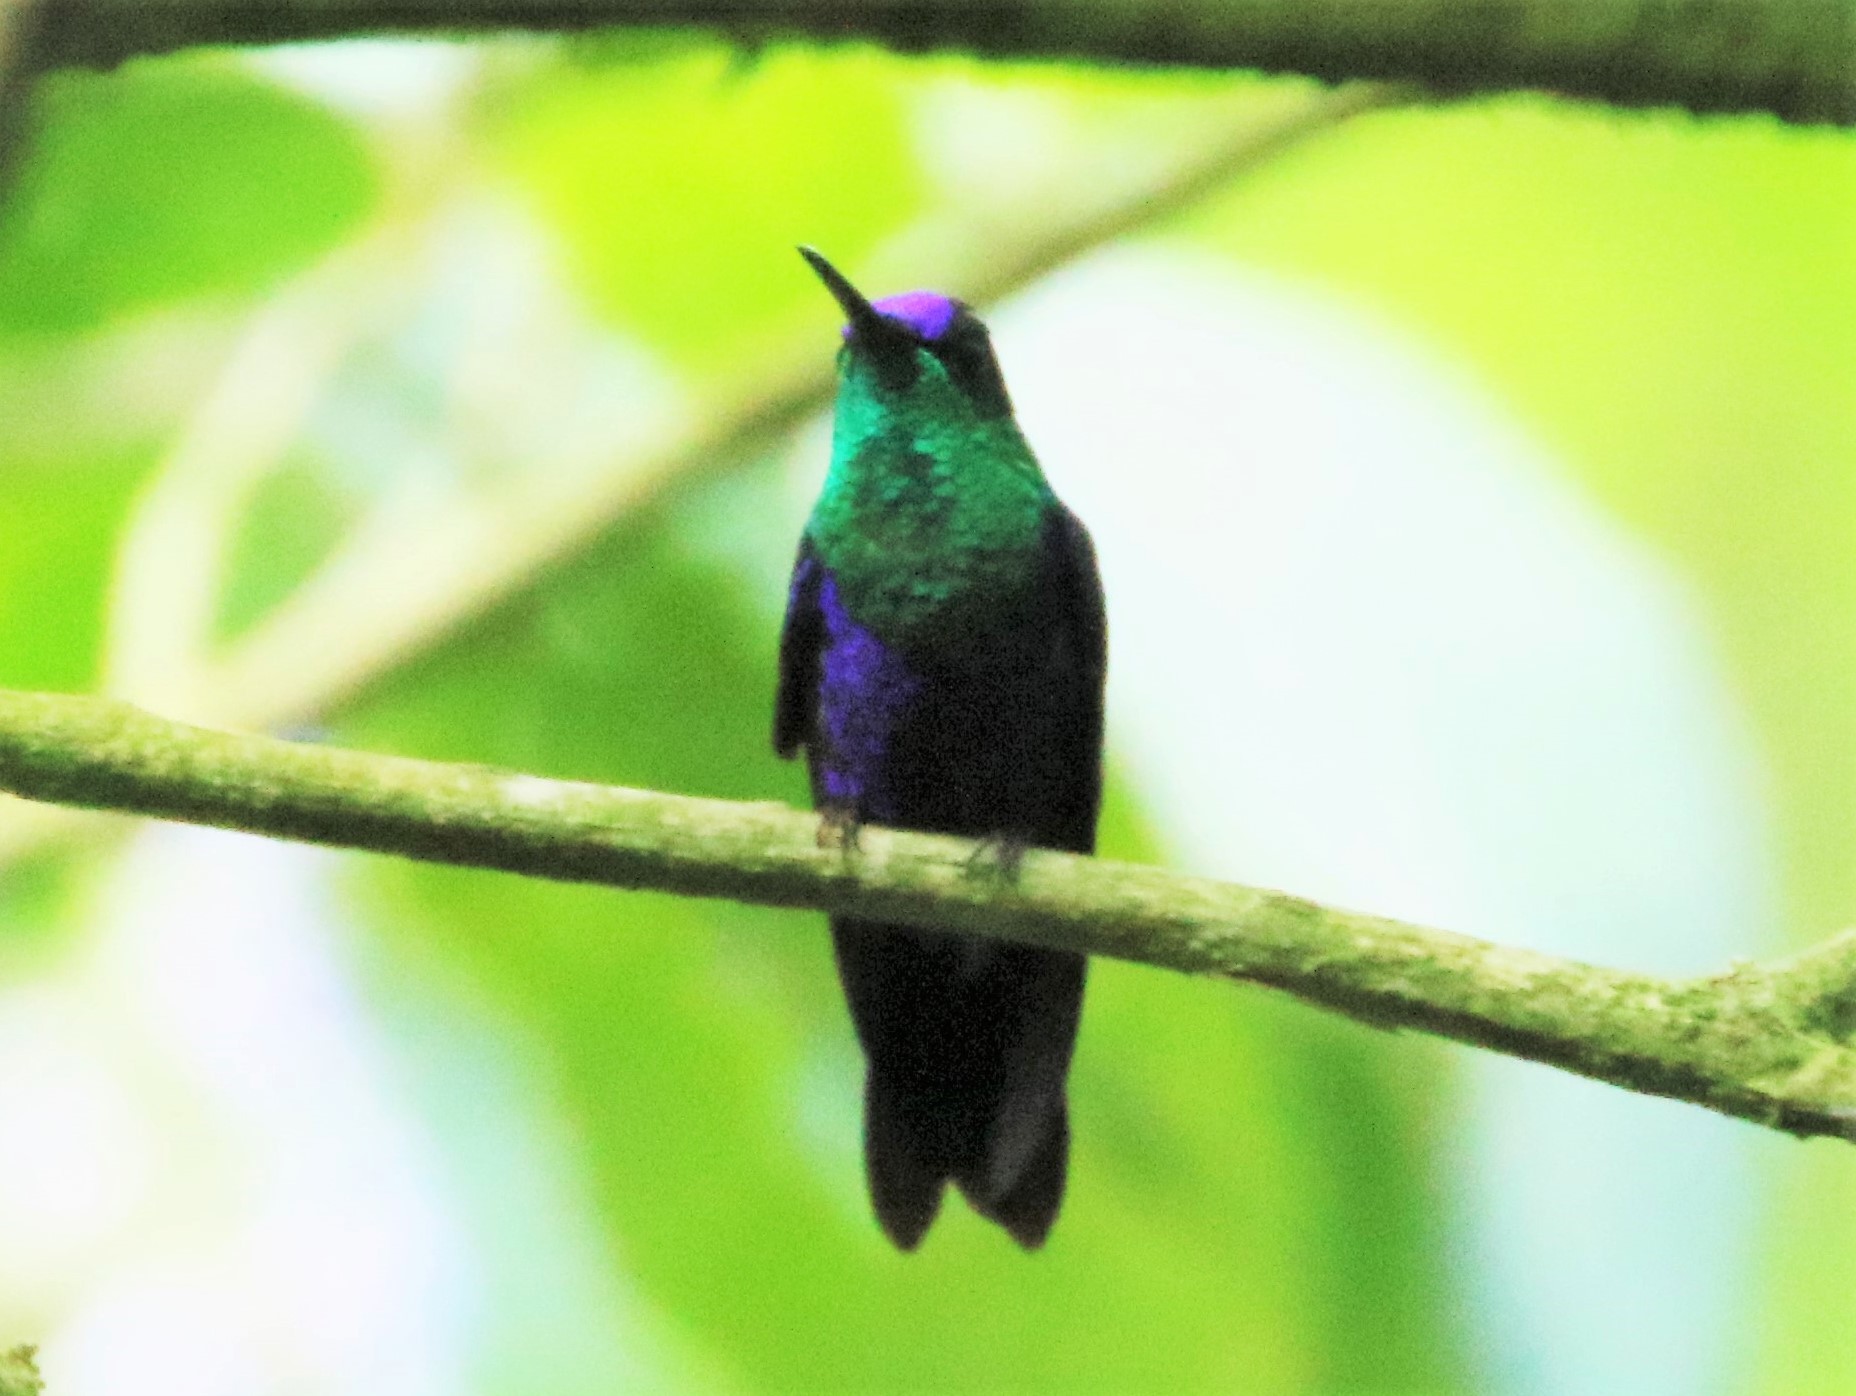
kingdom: Animalia
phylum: Chordata
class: Aves
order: Apodiformes
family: Trochilidae
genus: Thalurania
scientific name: Thalurania colombica
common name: Crowned woodnymph
